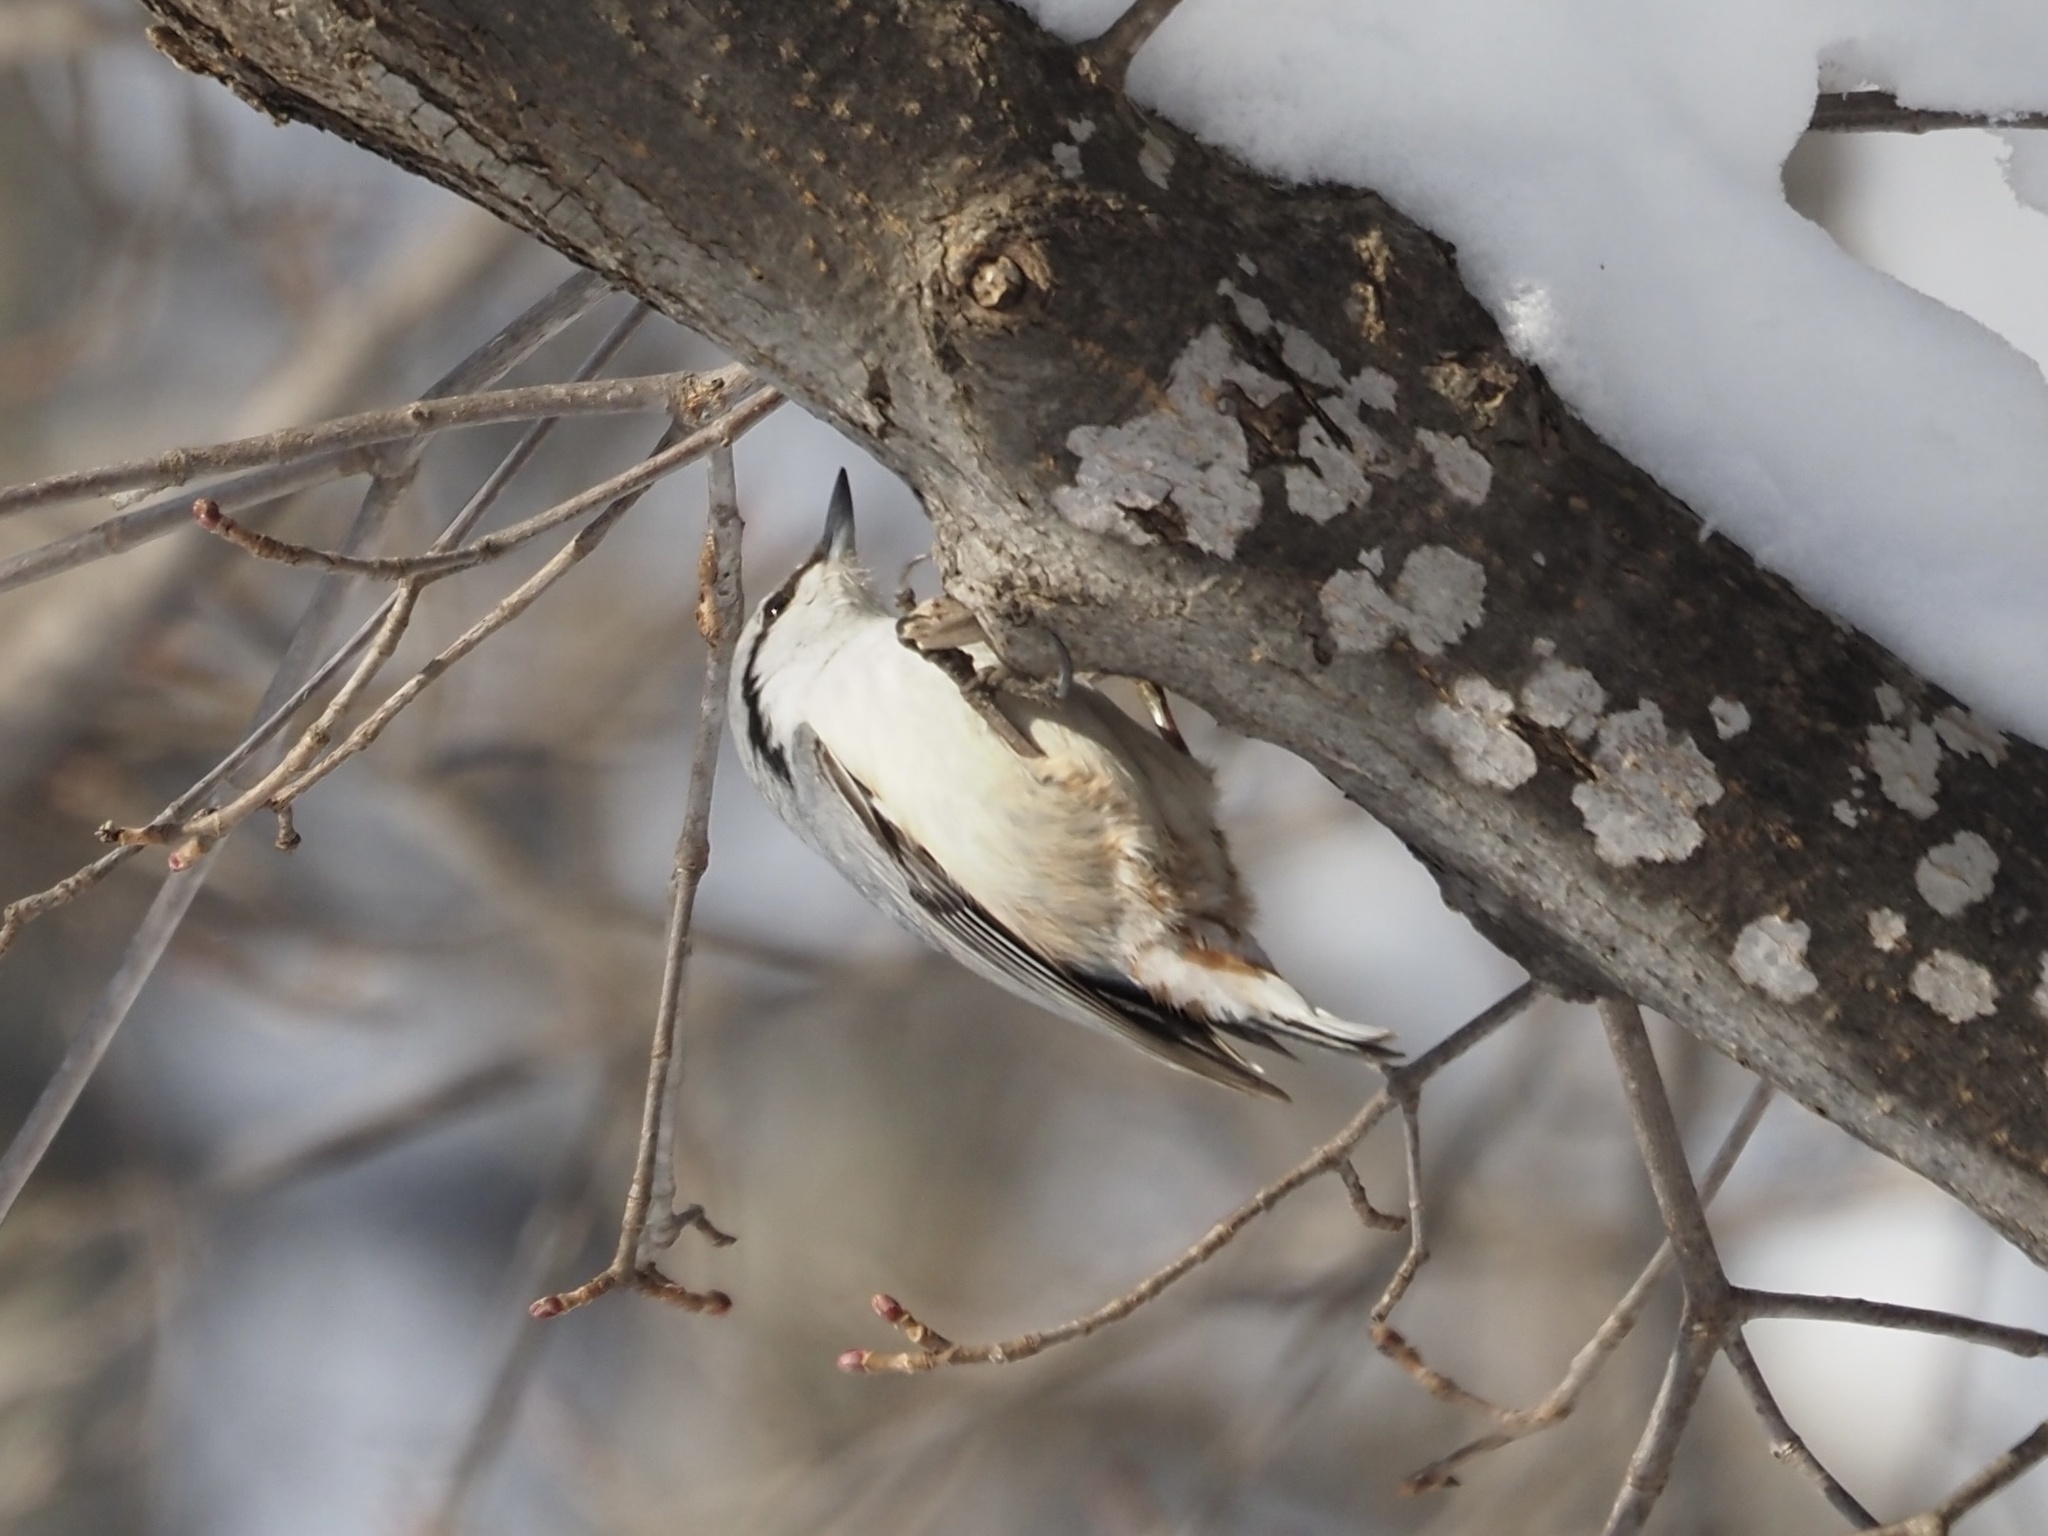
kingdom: Animalia
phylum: Chordata
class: Aves
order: Passeriformes
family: Sittidae
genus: Sitta
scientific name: Sitta europaea
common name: Eurasian nuthatch
